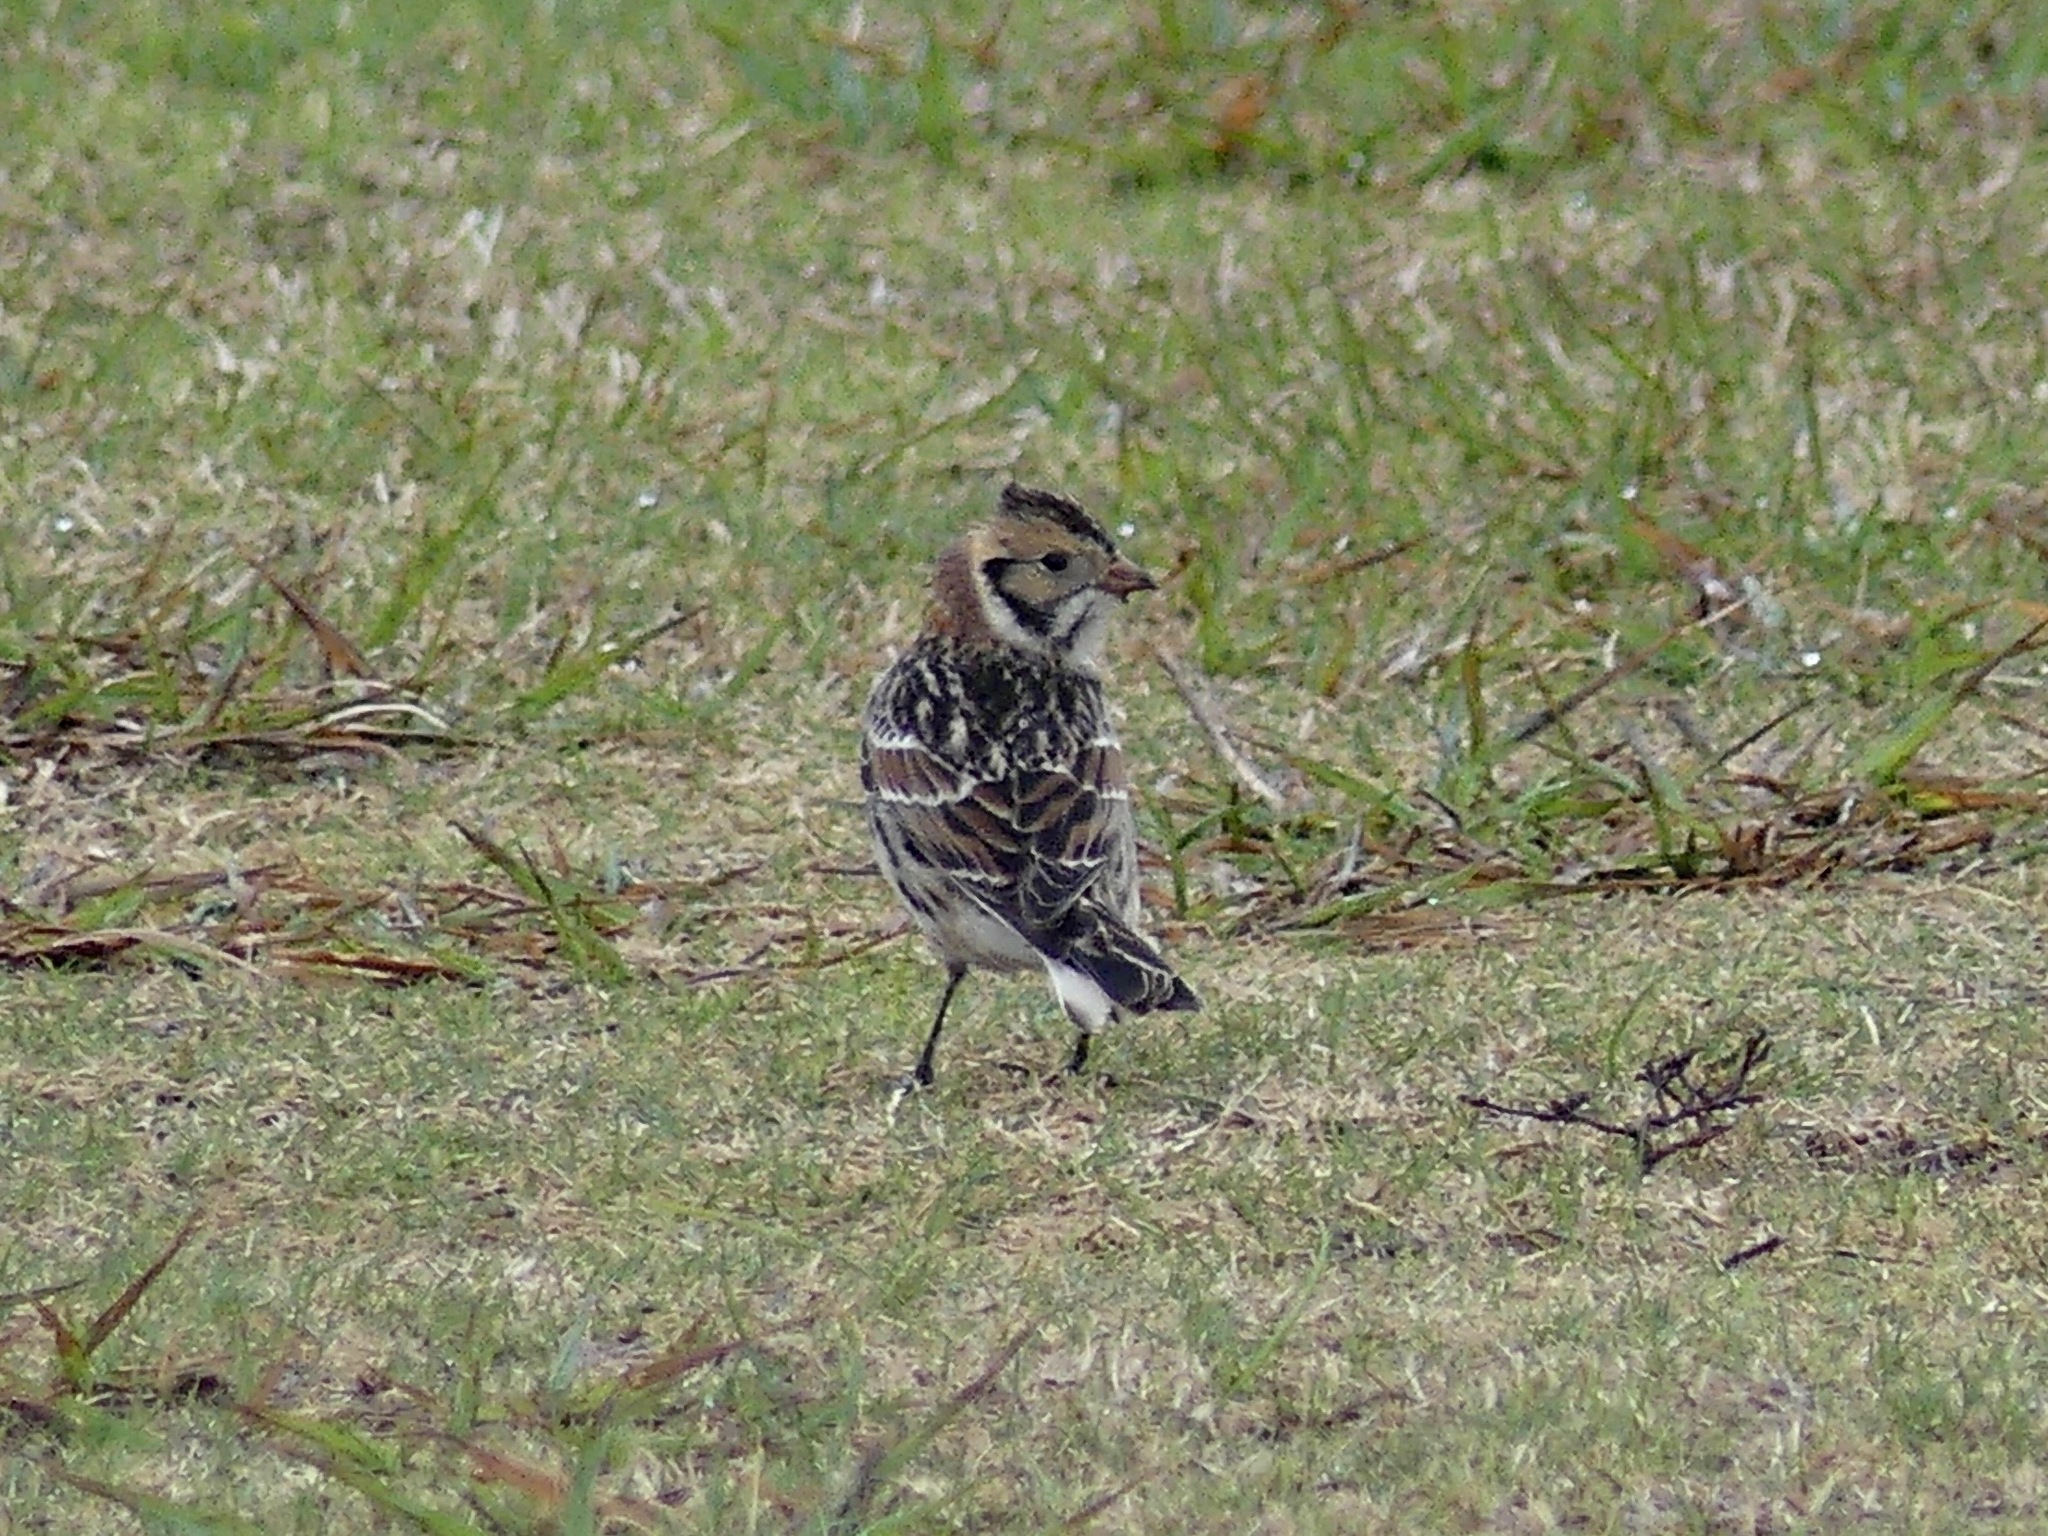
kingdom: Animalia
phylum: Chordata
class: Aves
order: Passeriformes
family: Calcariidae
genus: Calcarius
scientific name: Calcarius lapponicus
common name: Lapland longspur
